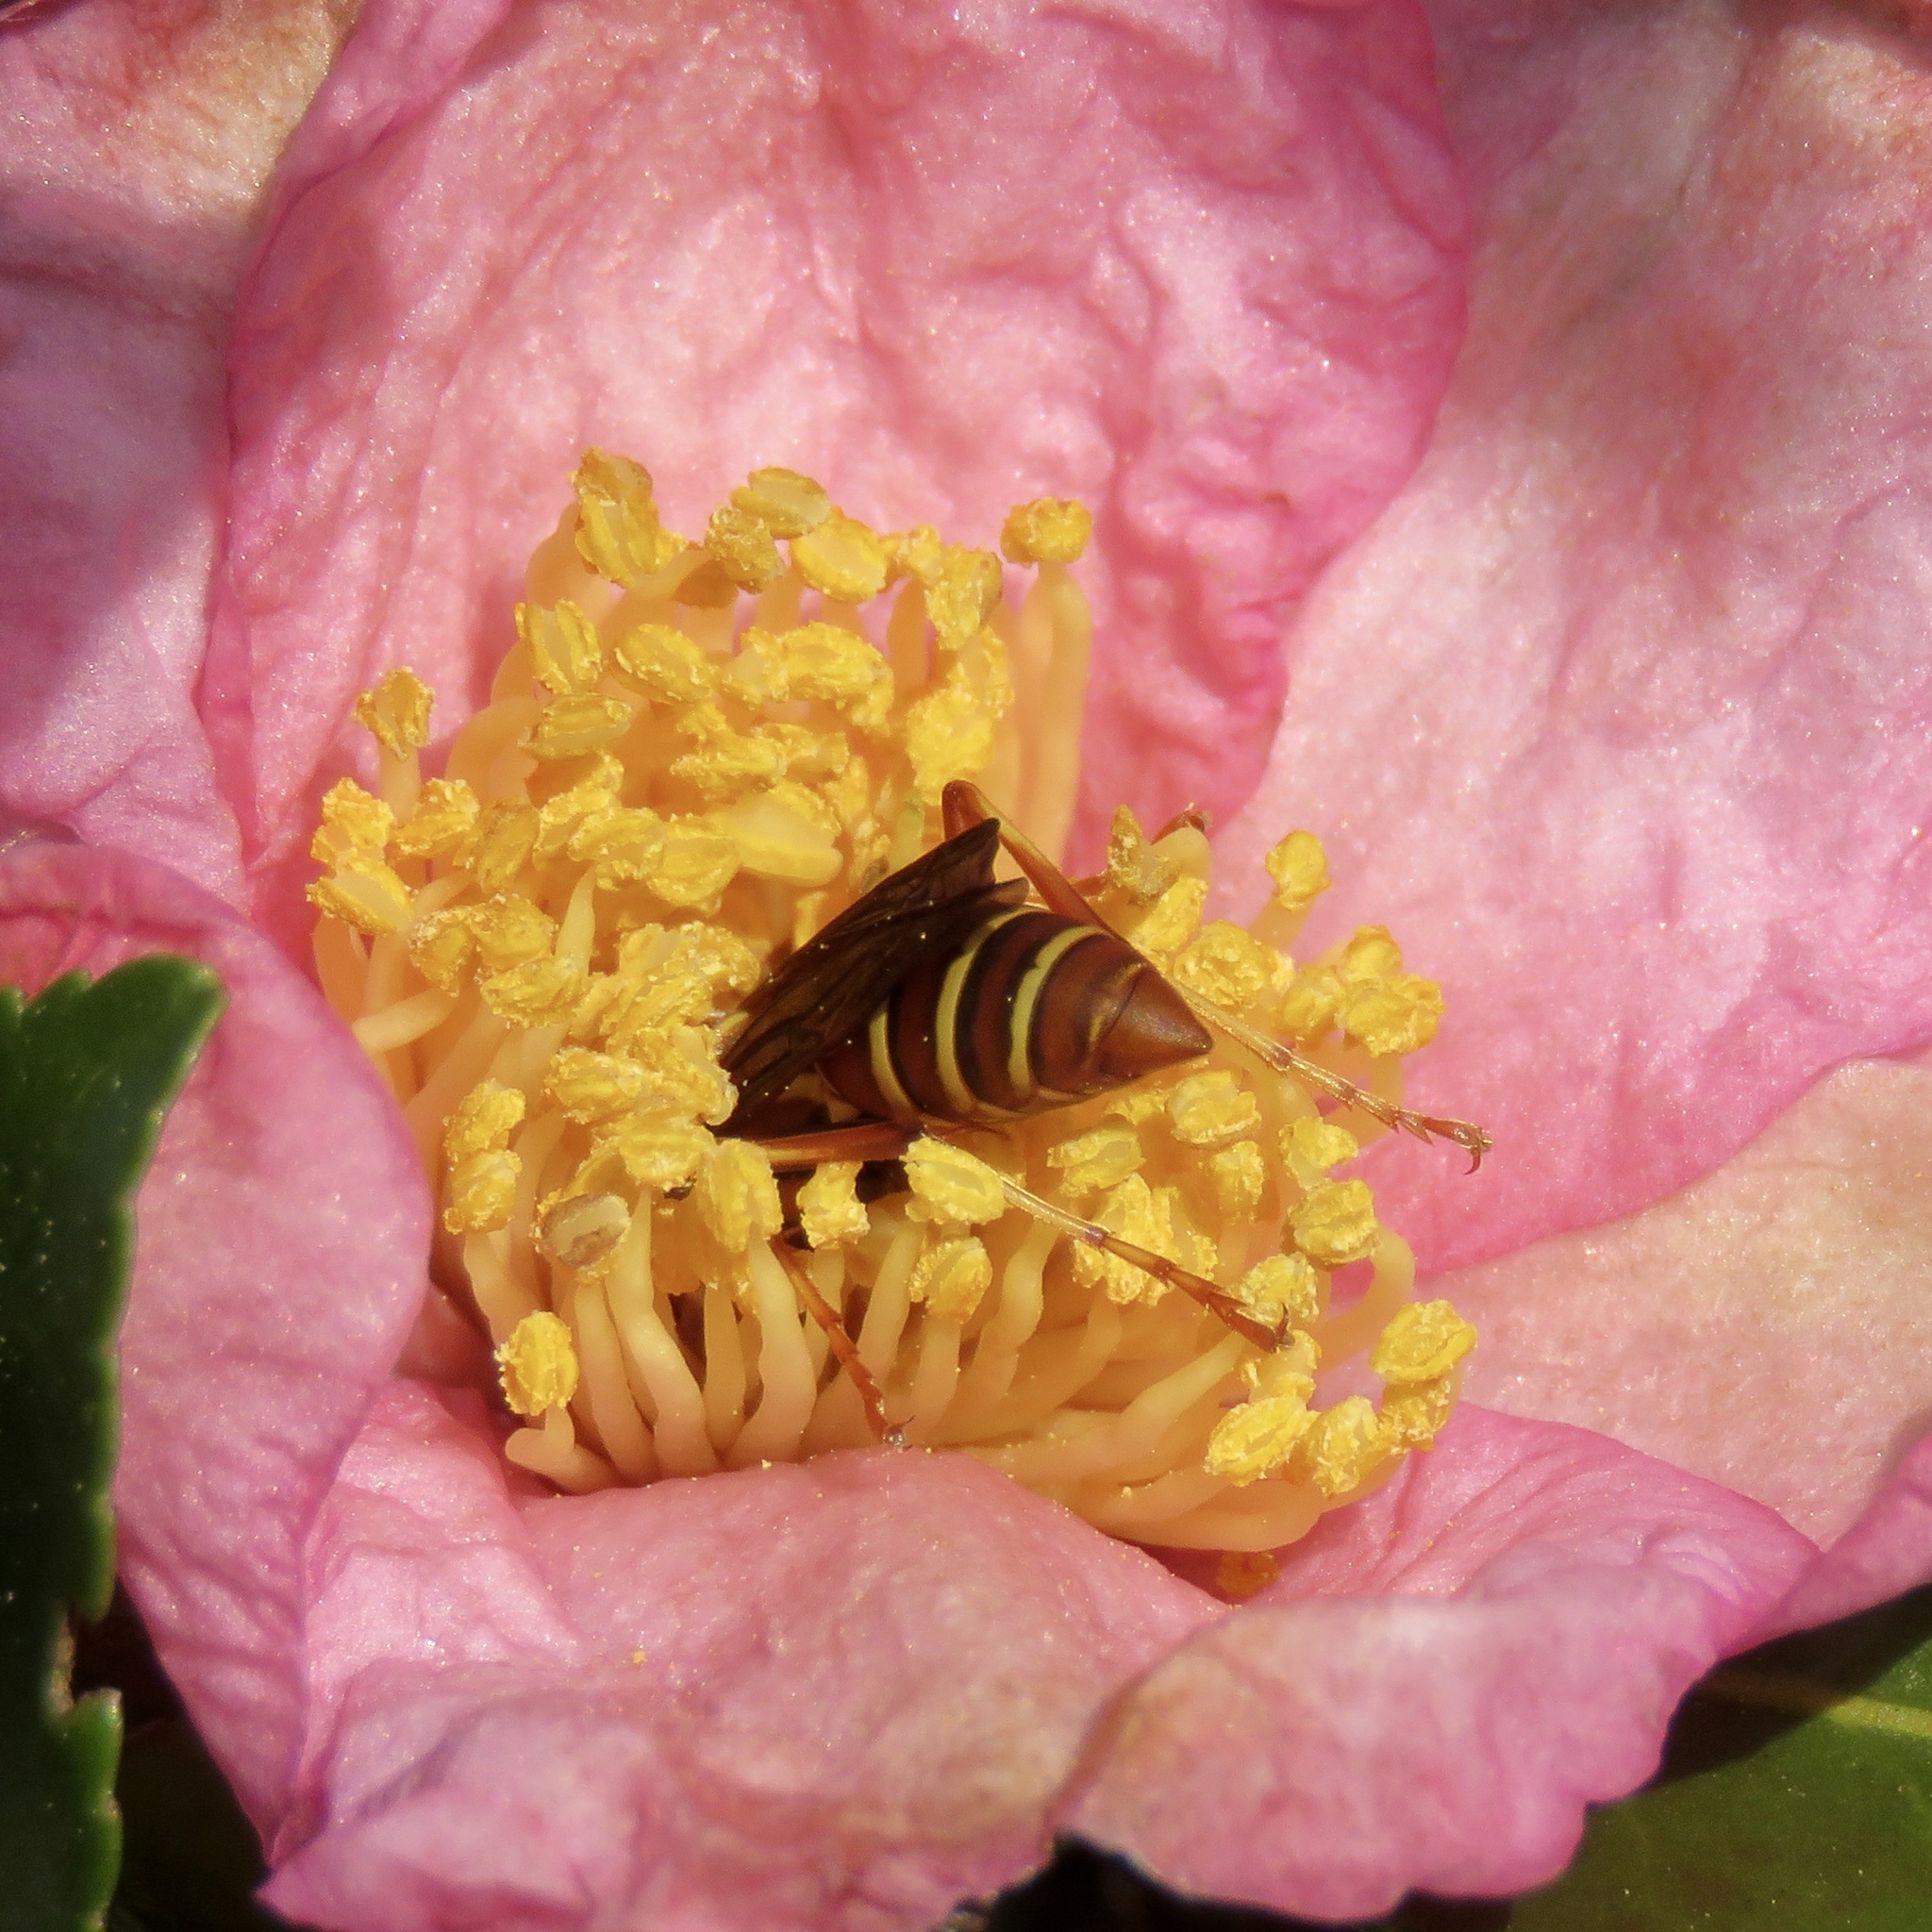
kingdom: Animalia
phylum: Arthropoda
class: Insecta
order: Hymenoptera
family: Eumenidae
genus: Polistes
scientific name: Polistes dorsalis
